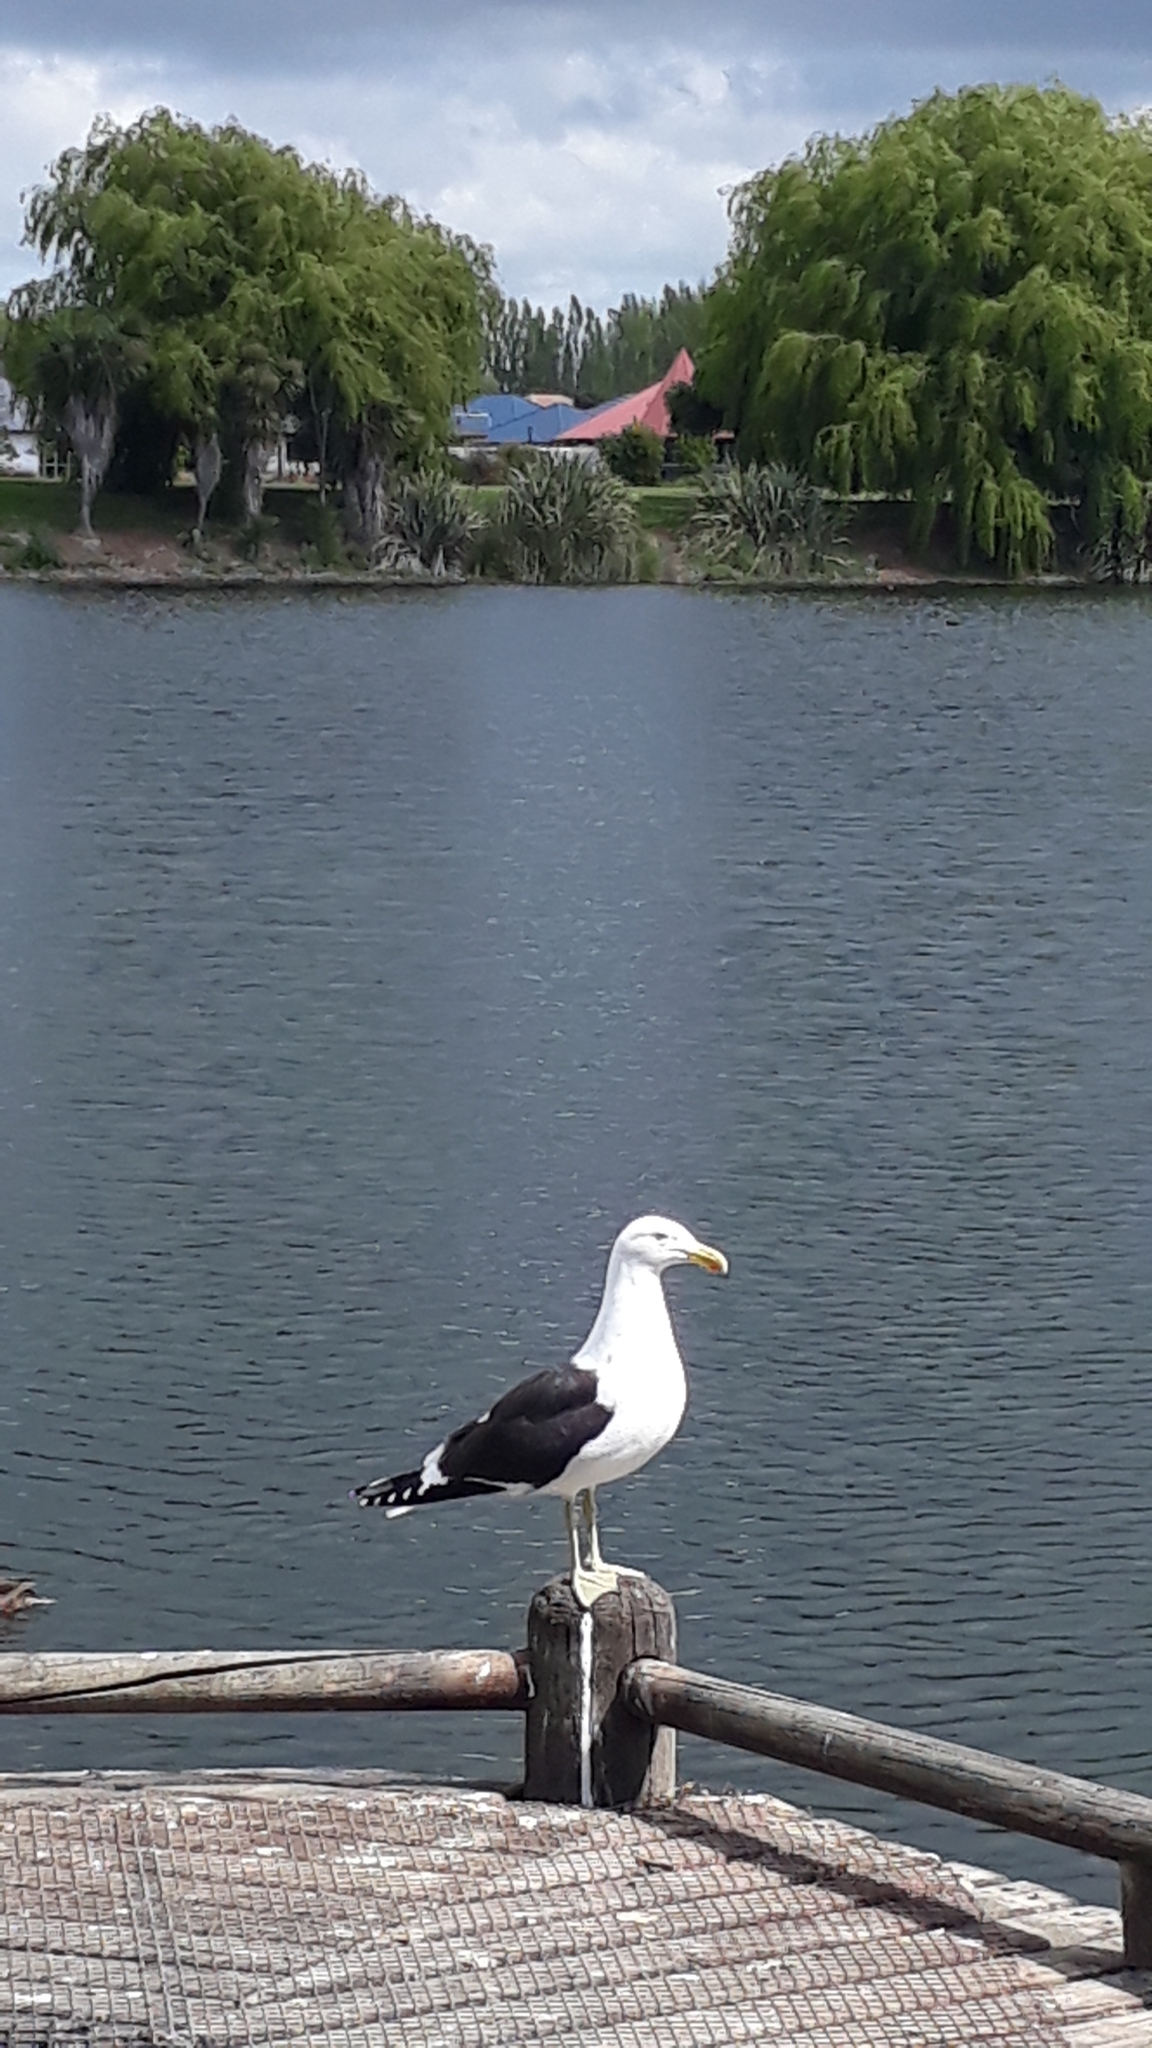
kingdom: Animalia
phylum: Chordata
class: Aves
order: Charadriiformes
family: Laridae
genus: Larus
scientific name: Larus dominicanus
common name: Kelp gull
